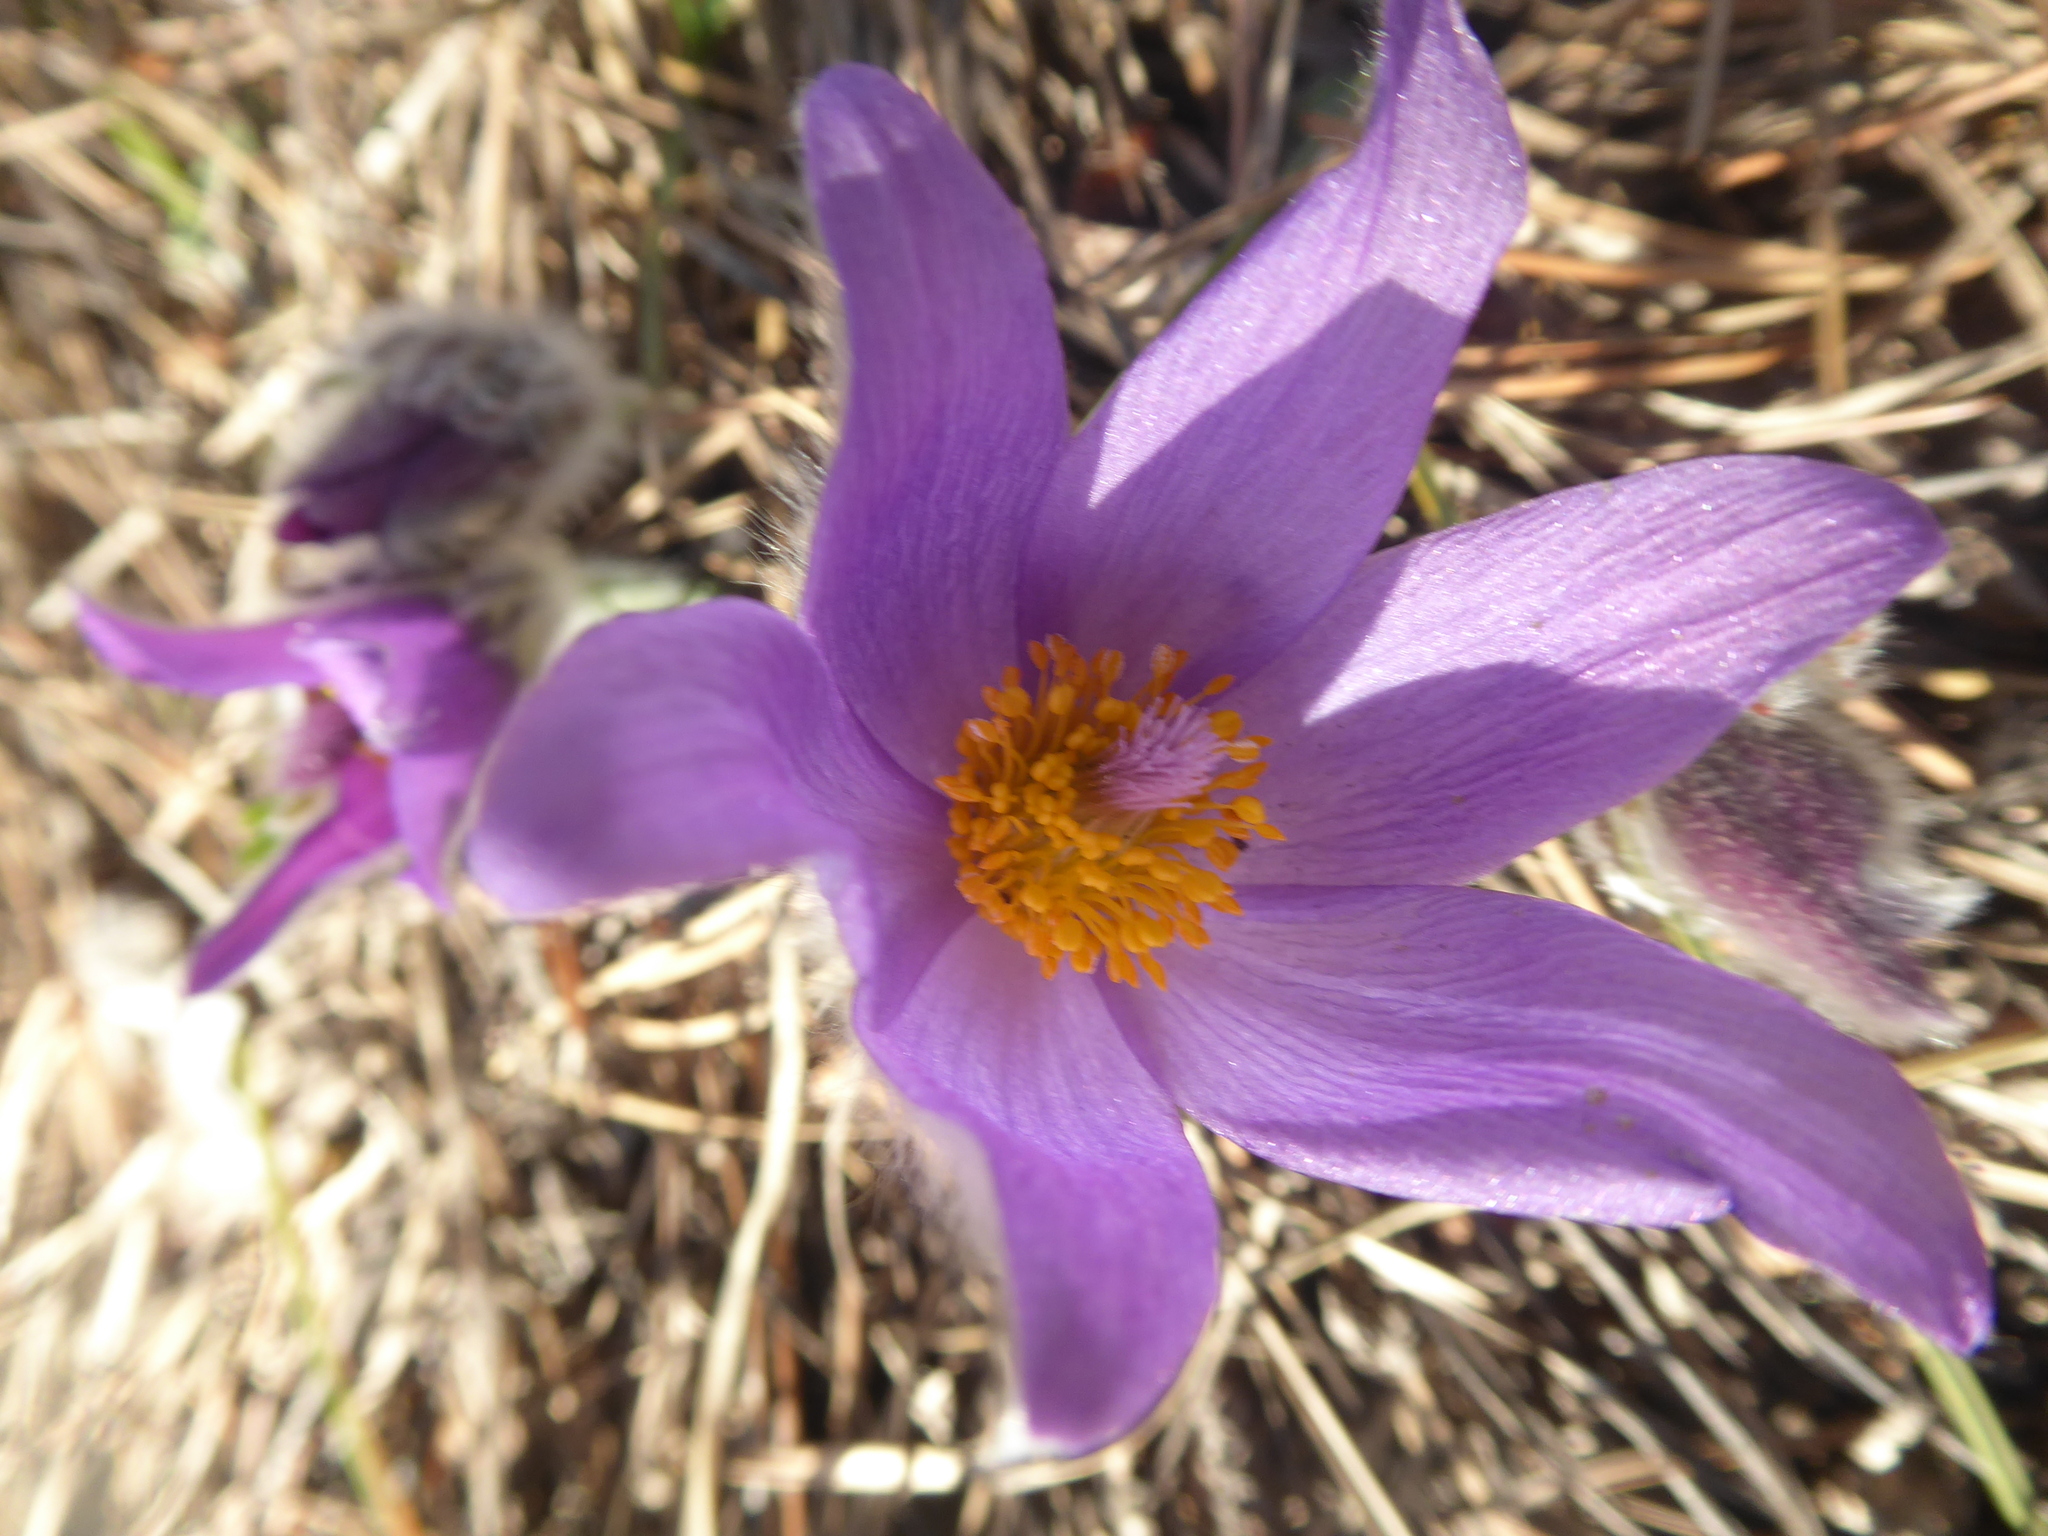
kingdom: Plantae
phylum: Tracheophyta
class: Magnoliopsida
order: Ranunculales
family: Ranunculaceae
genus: Pulsatilla
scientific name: Pulsatilla grandis
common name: Greater pasque flower
